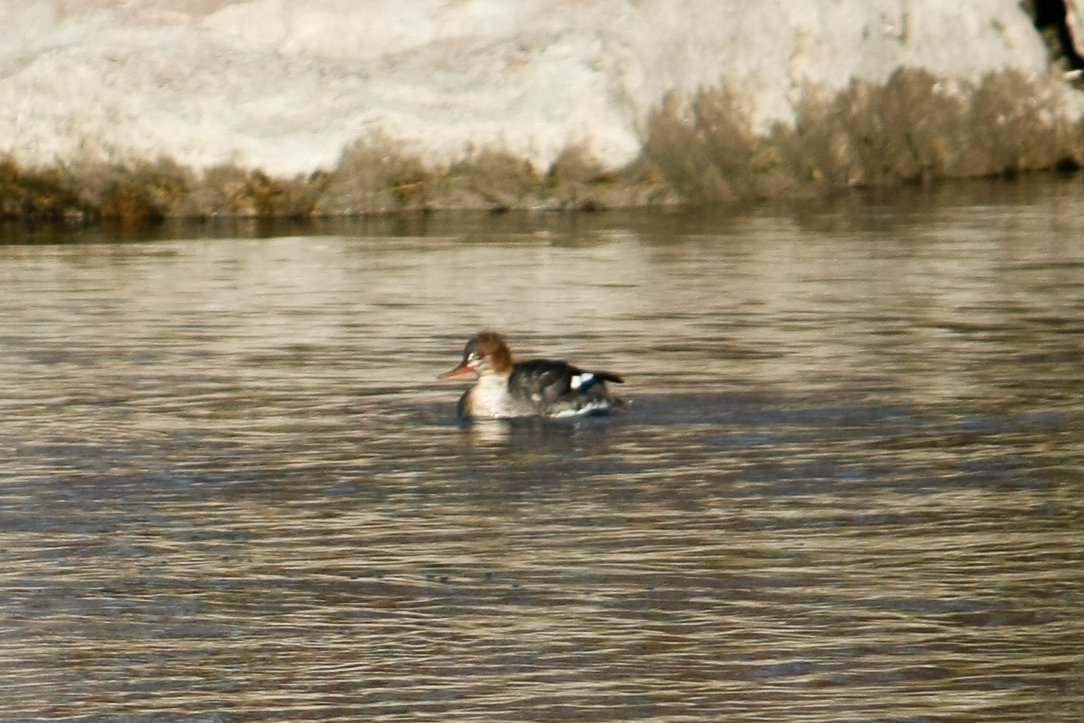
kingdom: Animalia
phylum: Chordata
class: Aves
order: Anseriformes
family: Anatidae
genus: Mergus
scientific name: Mergus serrator
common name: Red-breasted merganser
